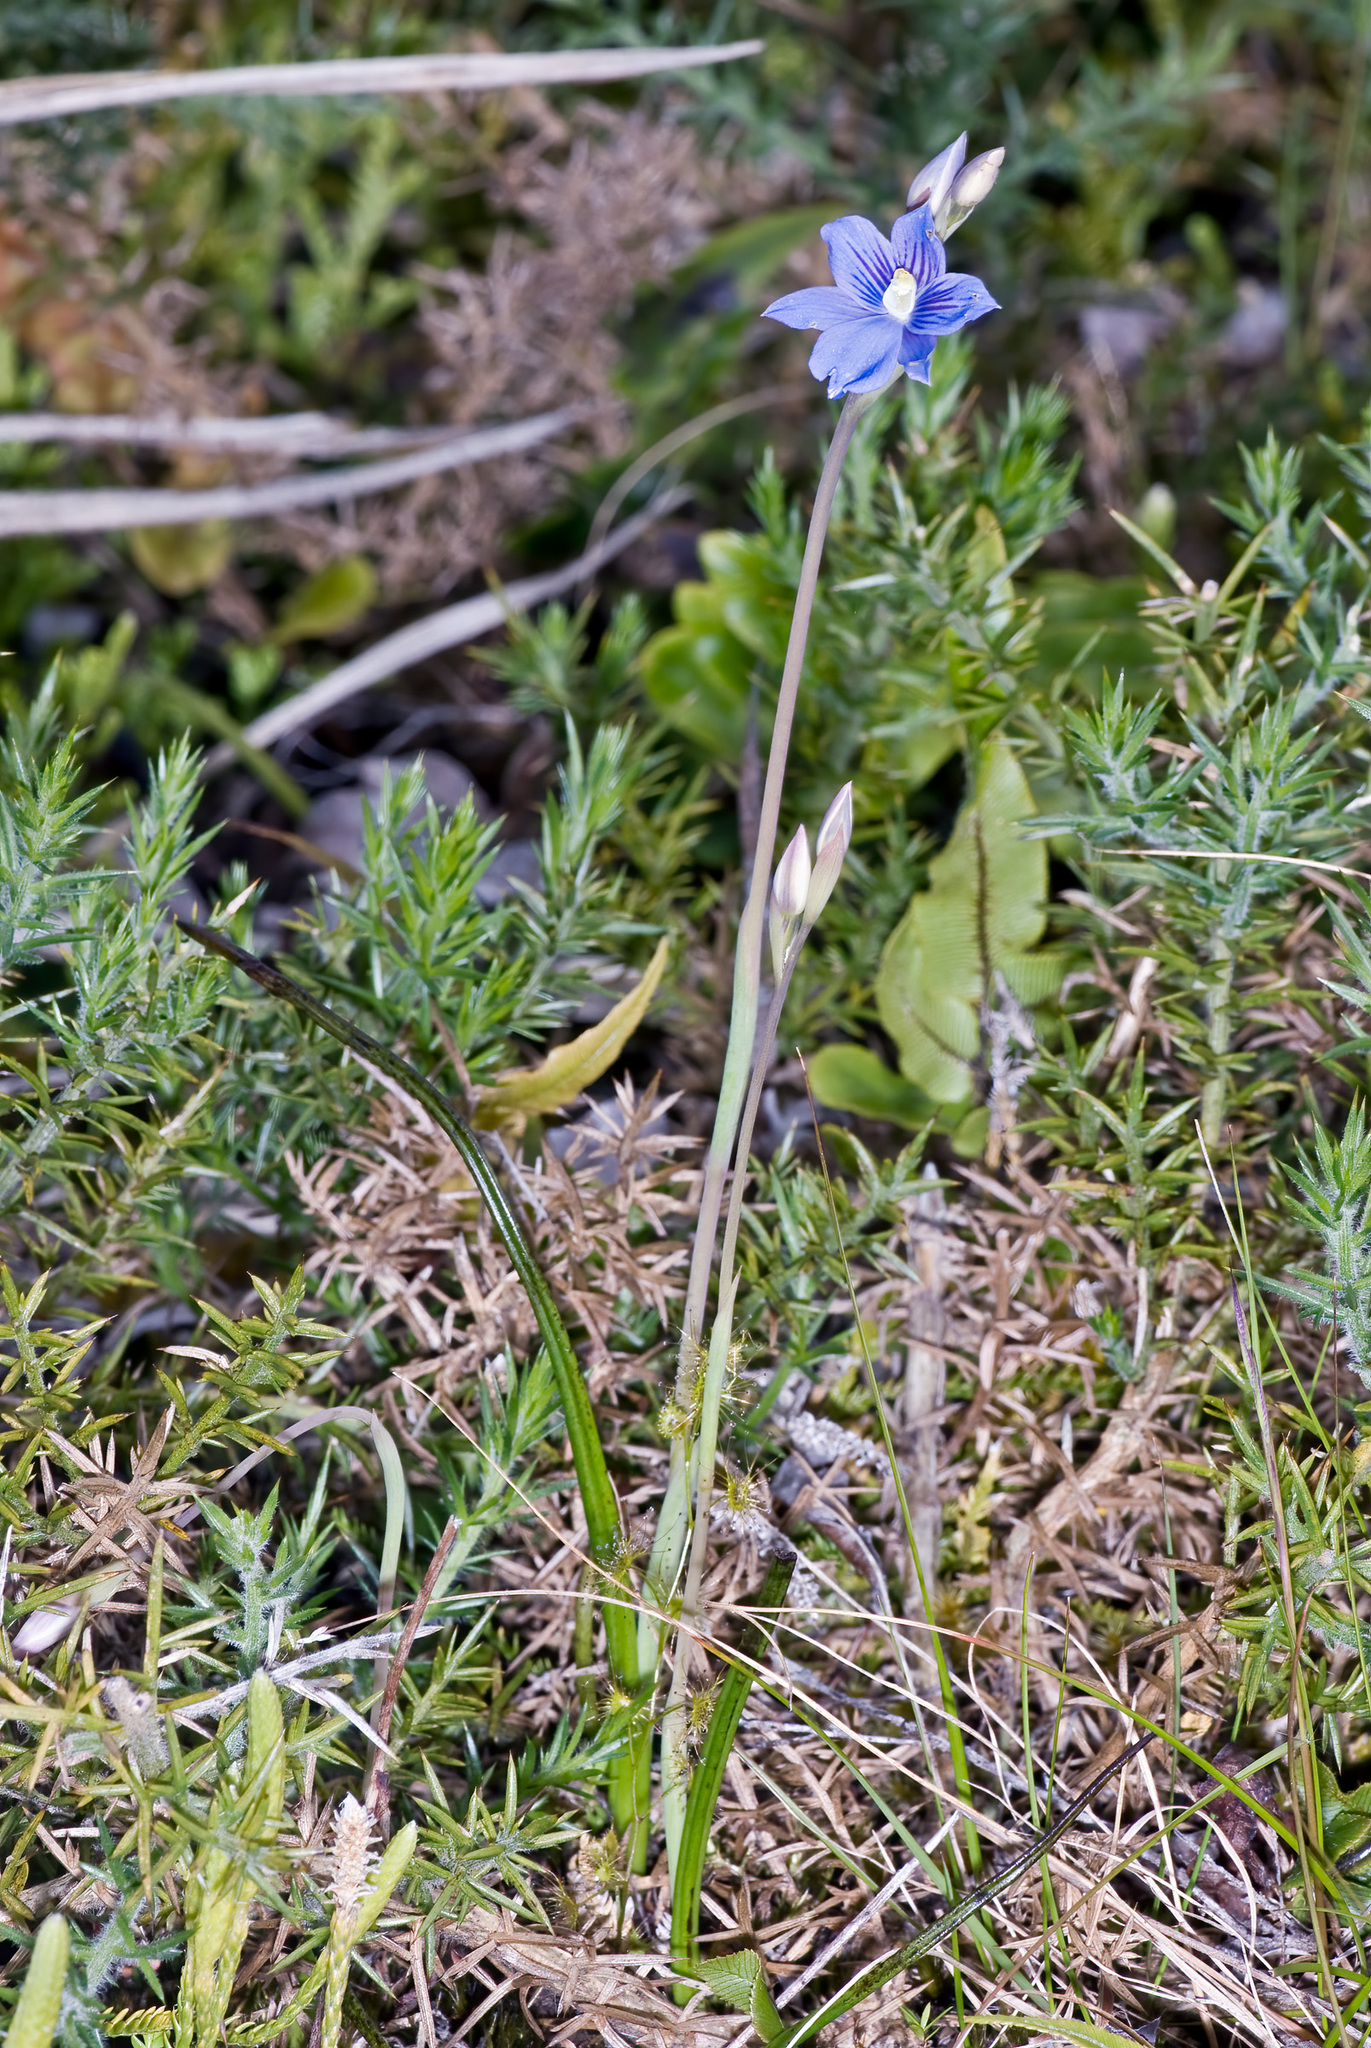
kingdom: Plantae
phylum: Tracheophyta
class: Liliopsida
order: Asparagales
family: Orchidaceae
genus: Thelymitra
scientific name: Thelymitra cyanea
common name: Blue sun-orchid
